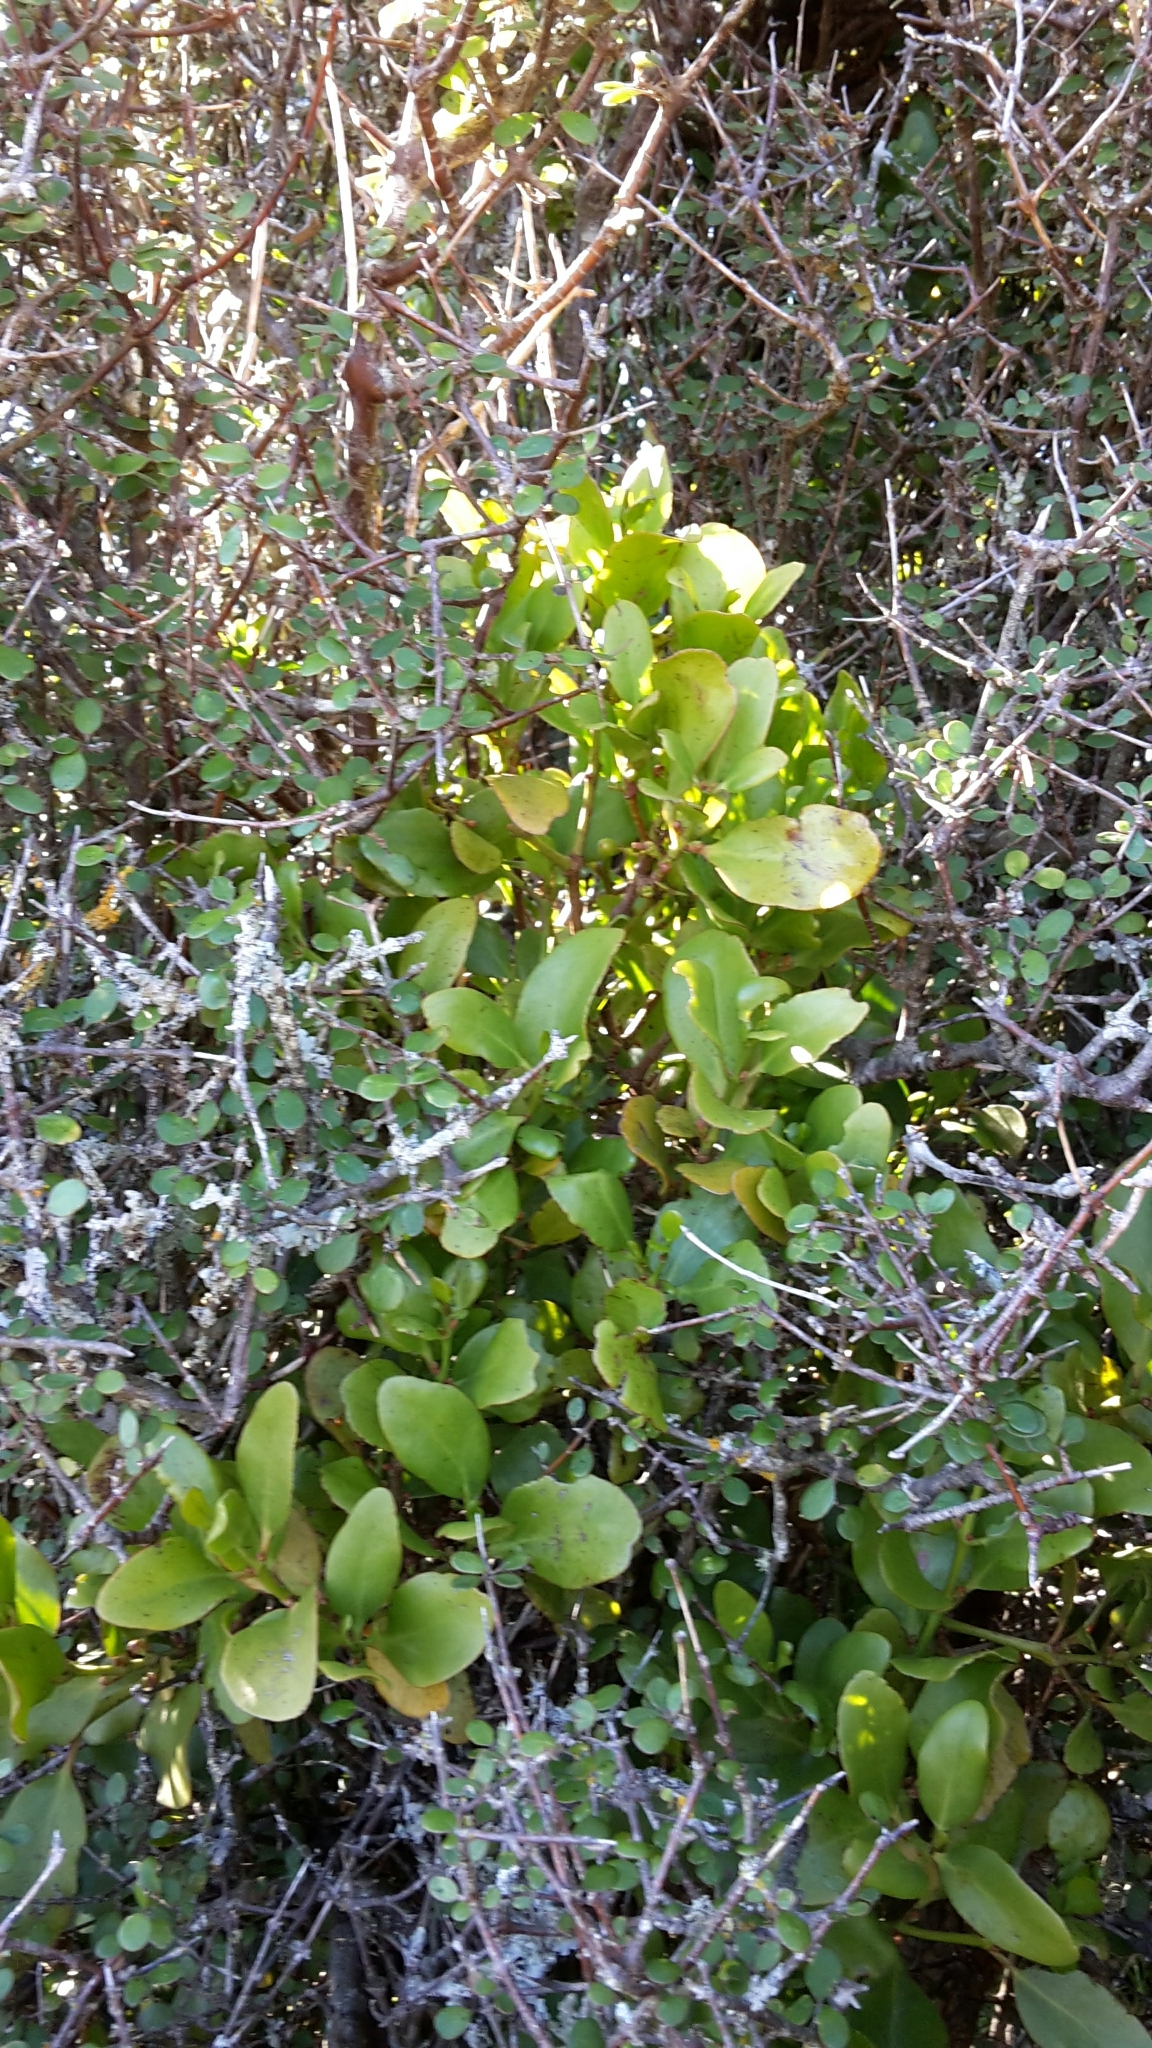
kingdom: Plantae
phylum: Tracheophyta
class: Magnoliopsida
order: Santalales
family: Loranthaceae
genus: Ileostylus
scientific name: Ileostylus micranthus
